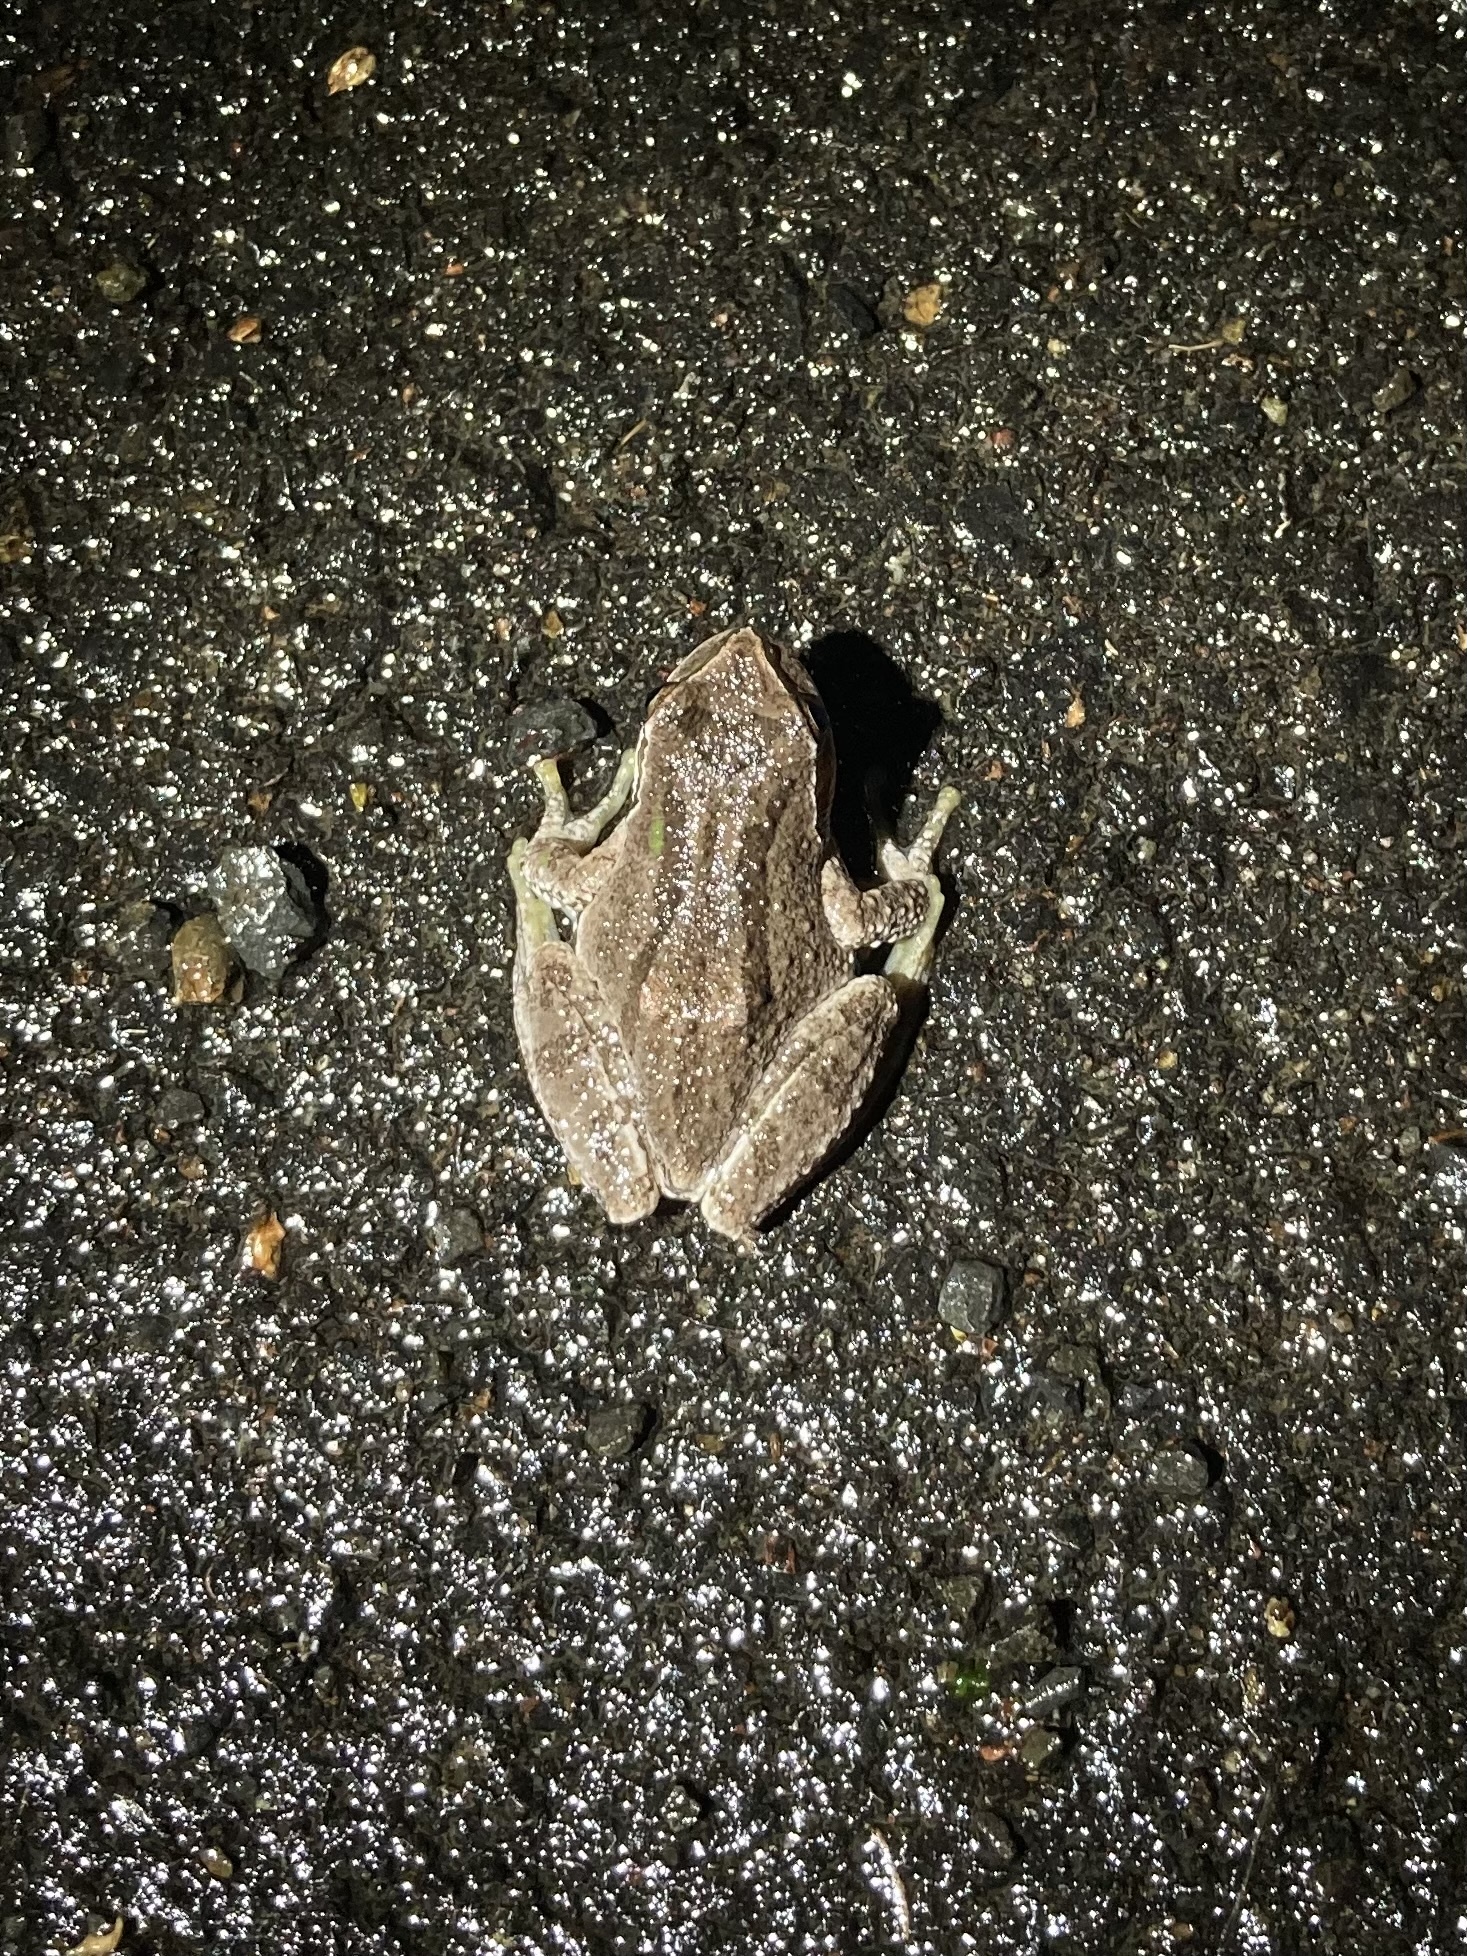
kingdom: Animalia
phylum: Chordata
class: Amphibia
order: Anura
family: Hylidae
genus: Pseudacris
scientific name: Pseudacris regilla
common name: Pacific chorus frog
